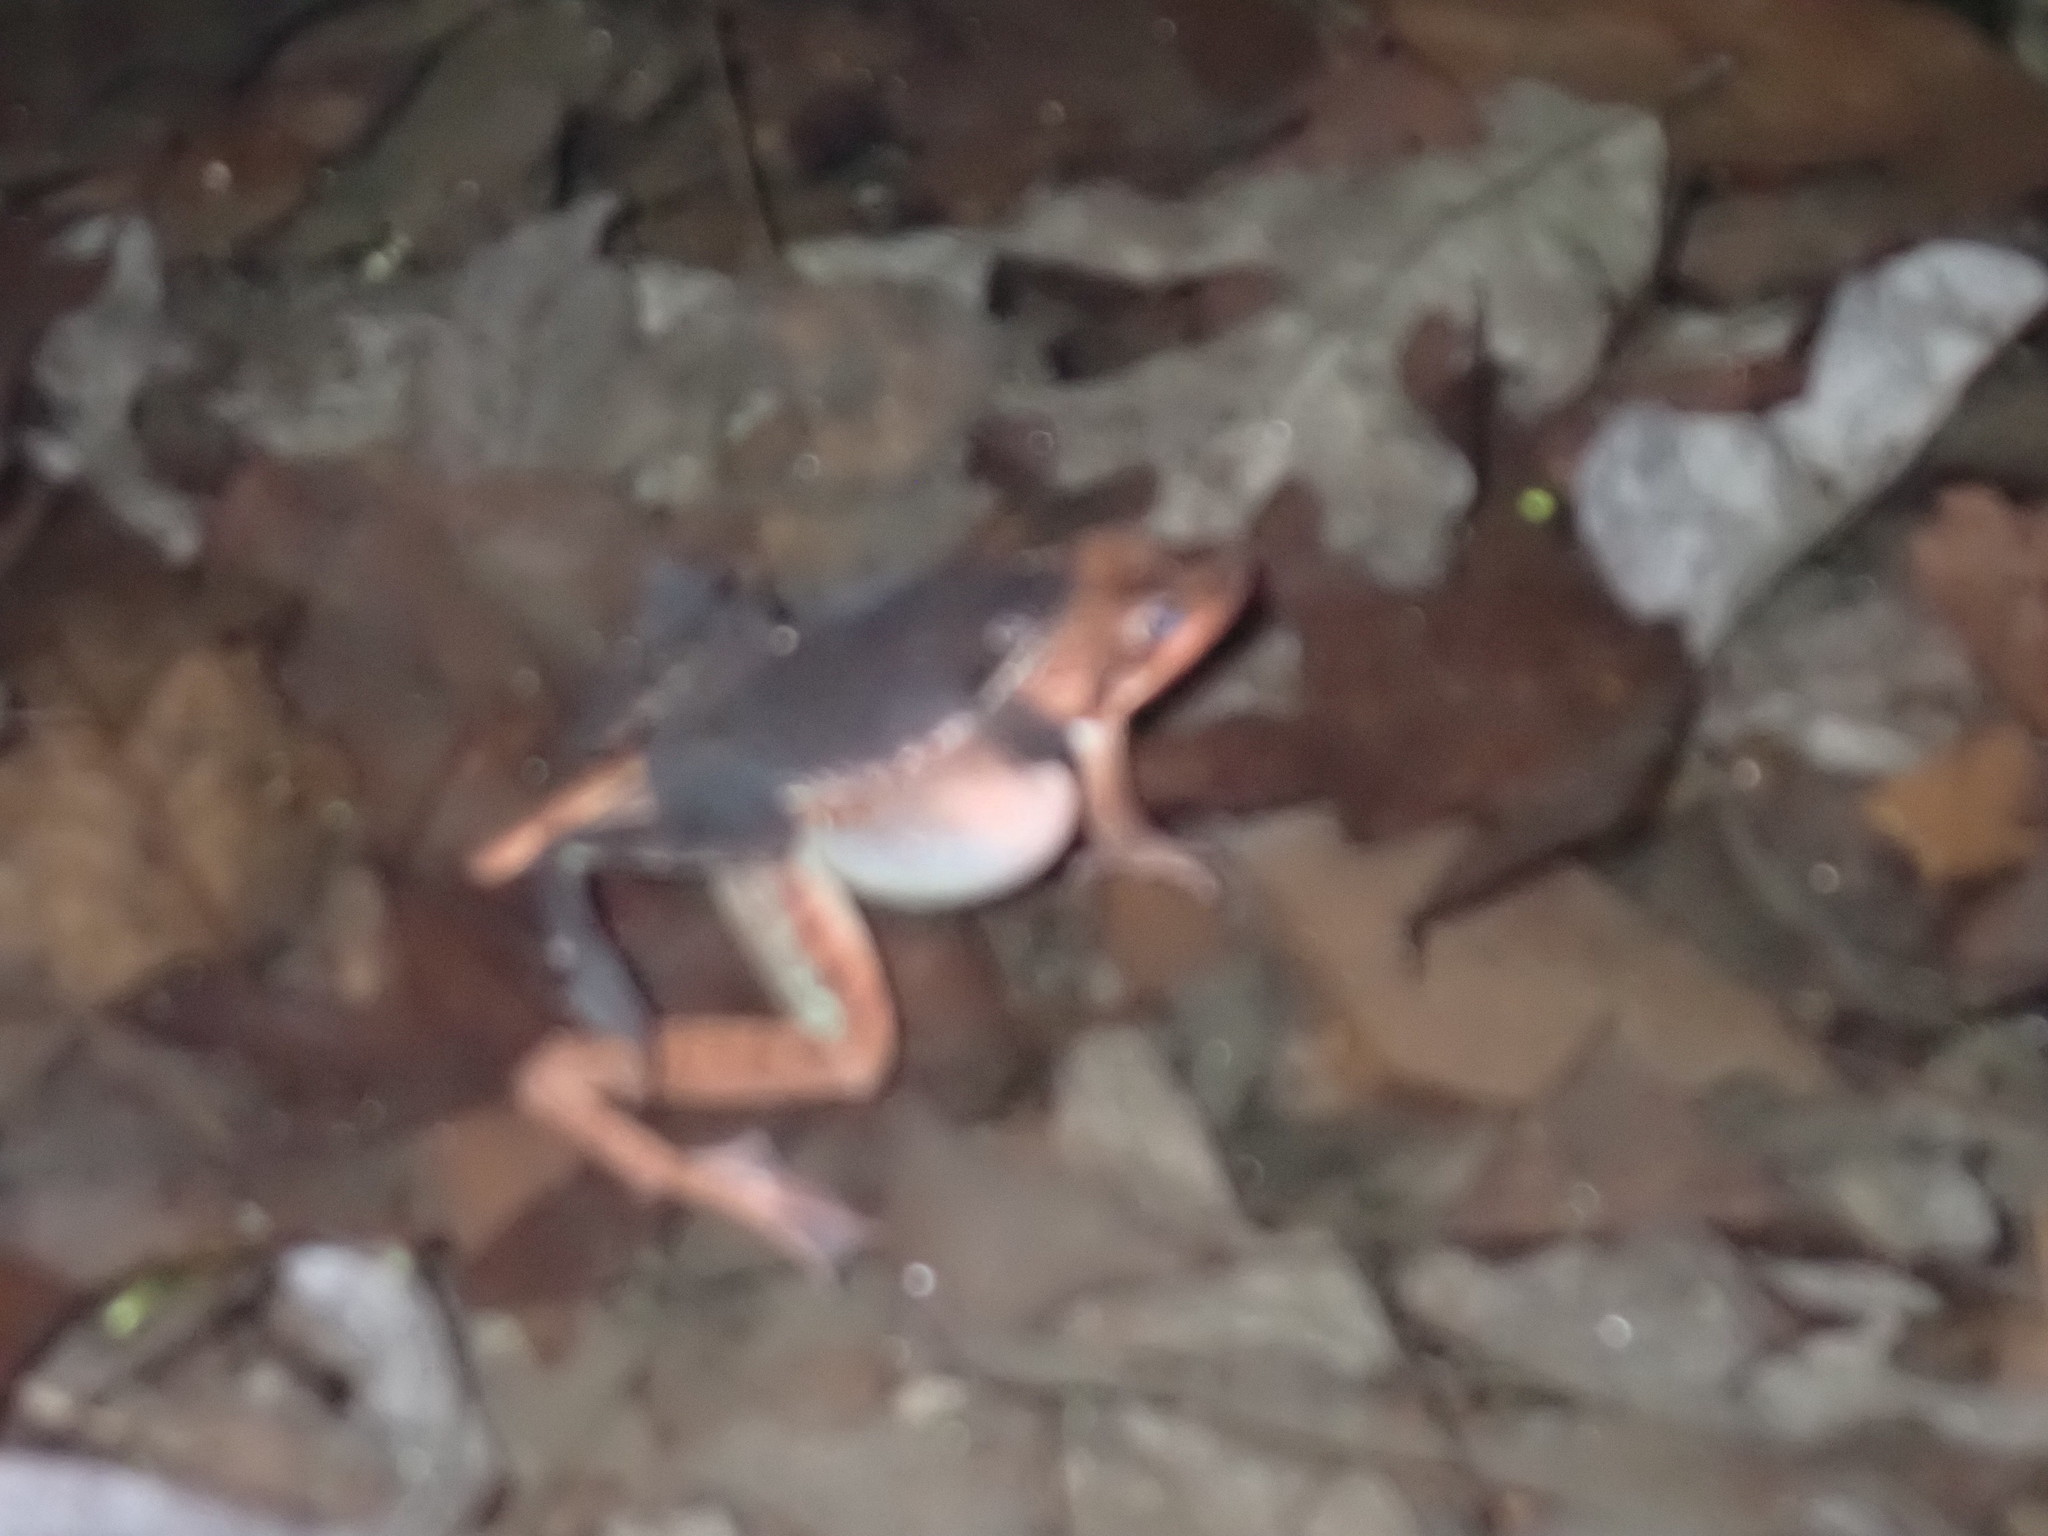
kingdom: Animalia
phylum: Chordata
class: Amphibia
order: Anura
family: Ranidae
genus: Lithobates
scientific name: Lithobates sylvaticus
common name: Wood frog
